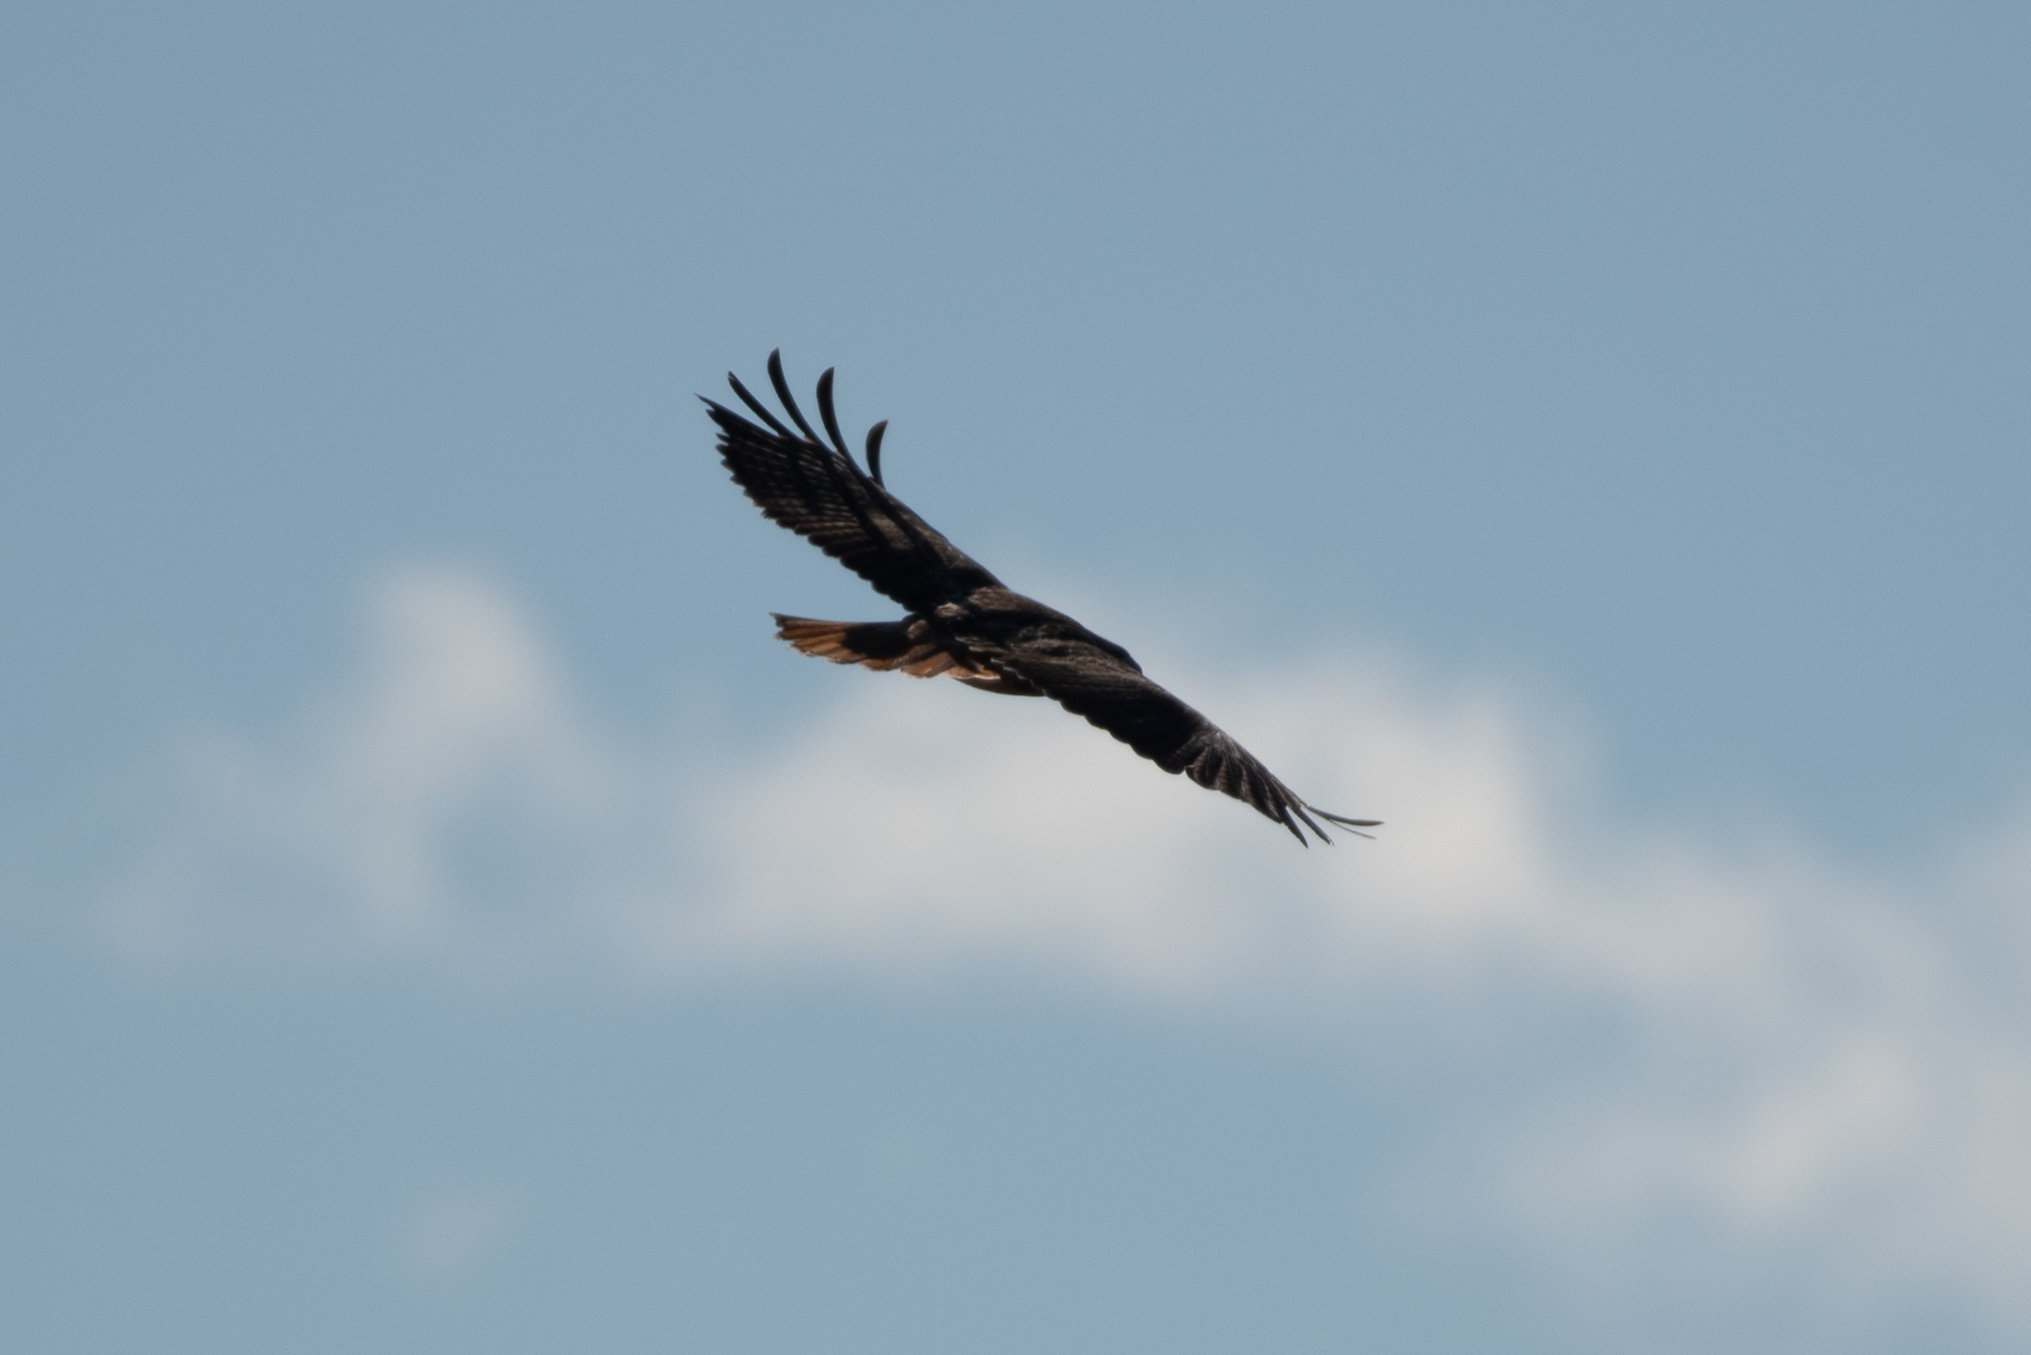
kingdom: Animalia
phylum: Chordata
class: Aves
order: Accipitriformes
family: Accipitridae
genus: Buteo
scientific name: Buteo jamaicensis
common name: Red-tailed hawk
